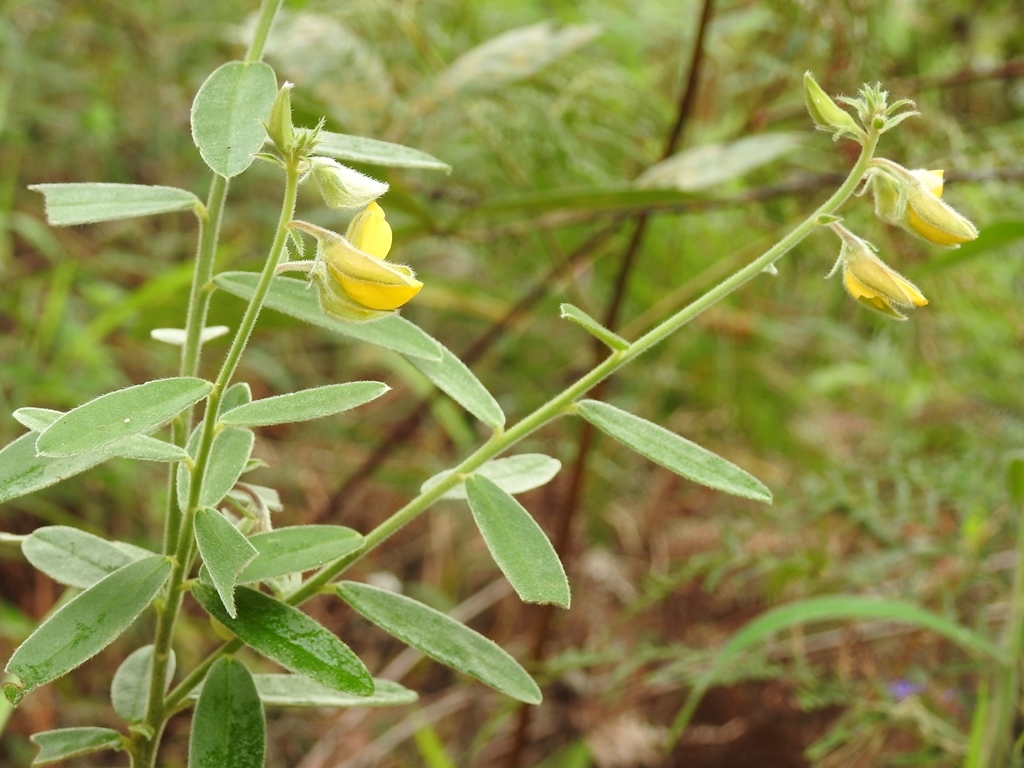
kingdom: Plantae
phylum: Tracheophyta
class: Magnoliopsida
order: Fabales
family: Fabaceae
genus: Crotalaria
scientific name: Crotalaria quercetorum
